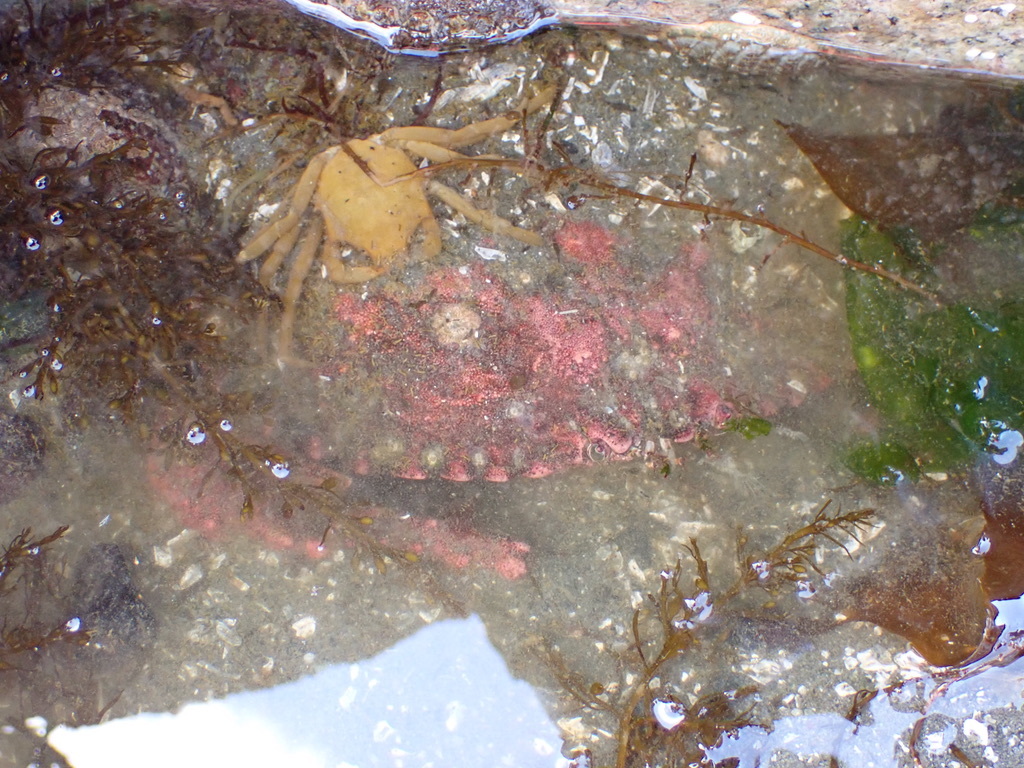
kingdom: Animalia
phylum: Arthropoda
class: Malacostraca
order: Decapoda
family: Cancridae
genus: Cancer
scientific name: Cancer productus
